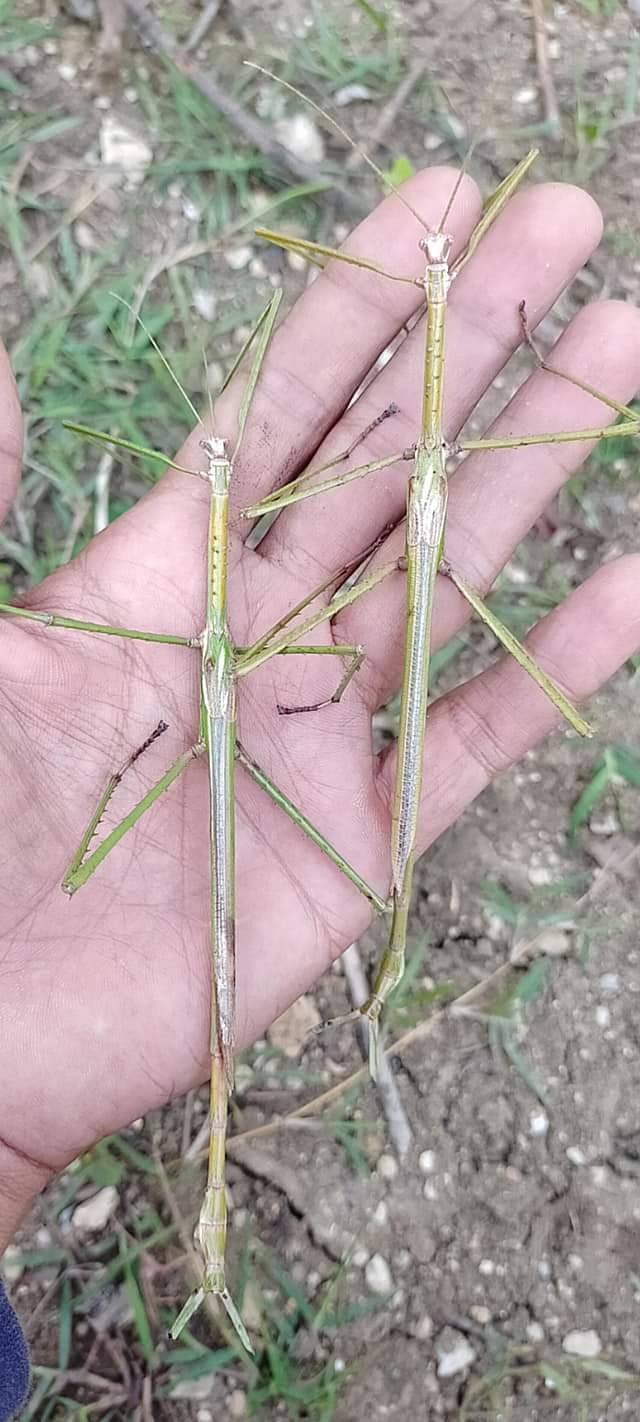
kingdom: Animalia
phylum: Arthropoda
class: Insecta
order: Phasmida
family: Phasmatidae
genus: Eurycnema
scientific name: Eurycnema versirubra
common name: Red-winged green giant stick-insect
